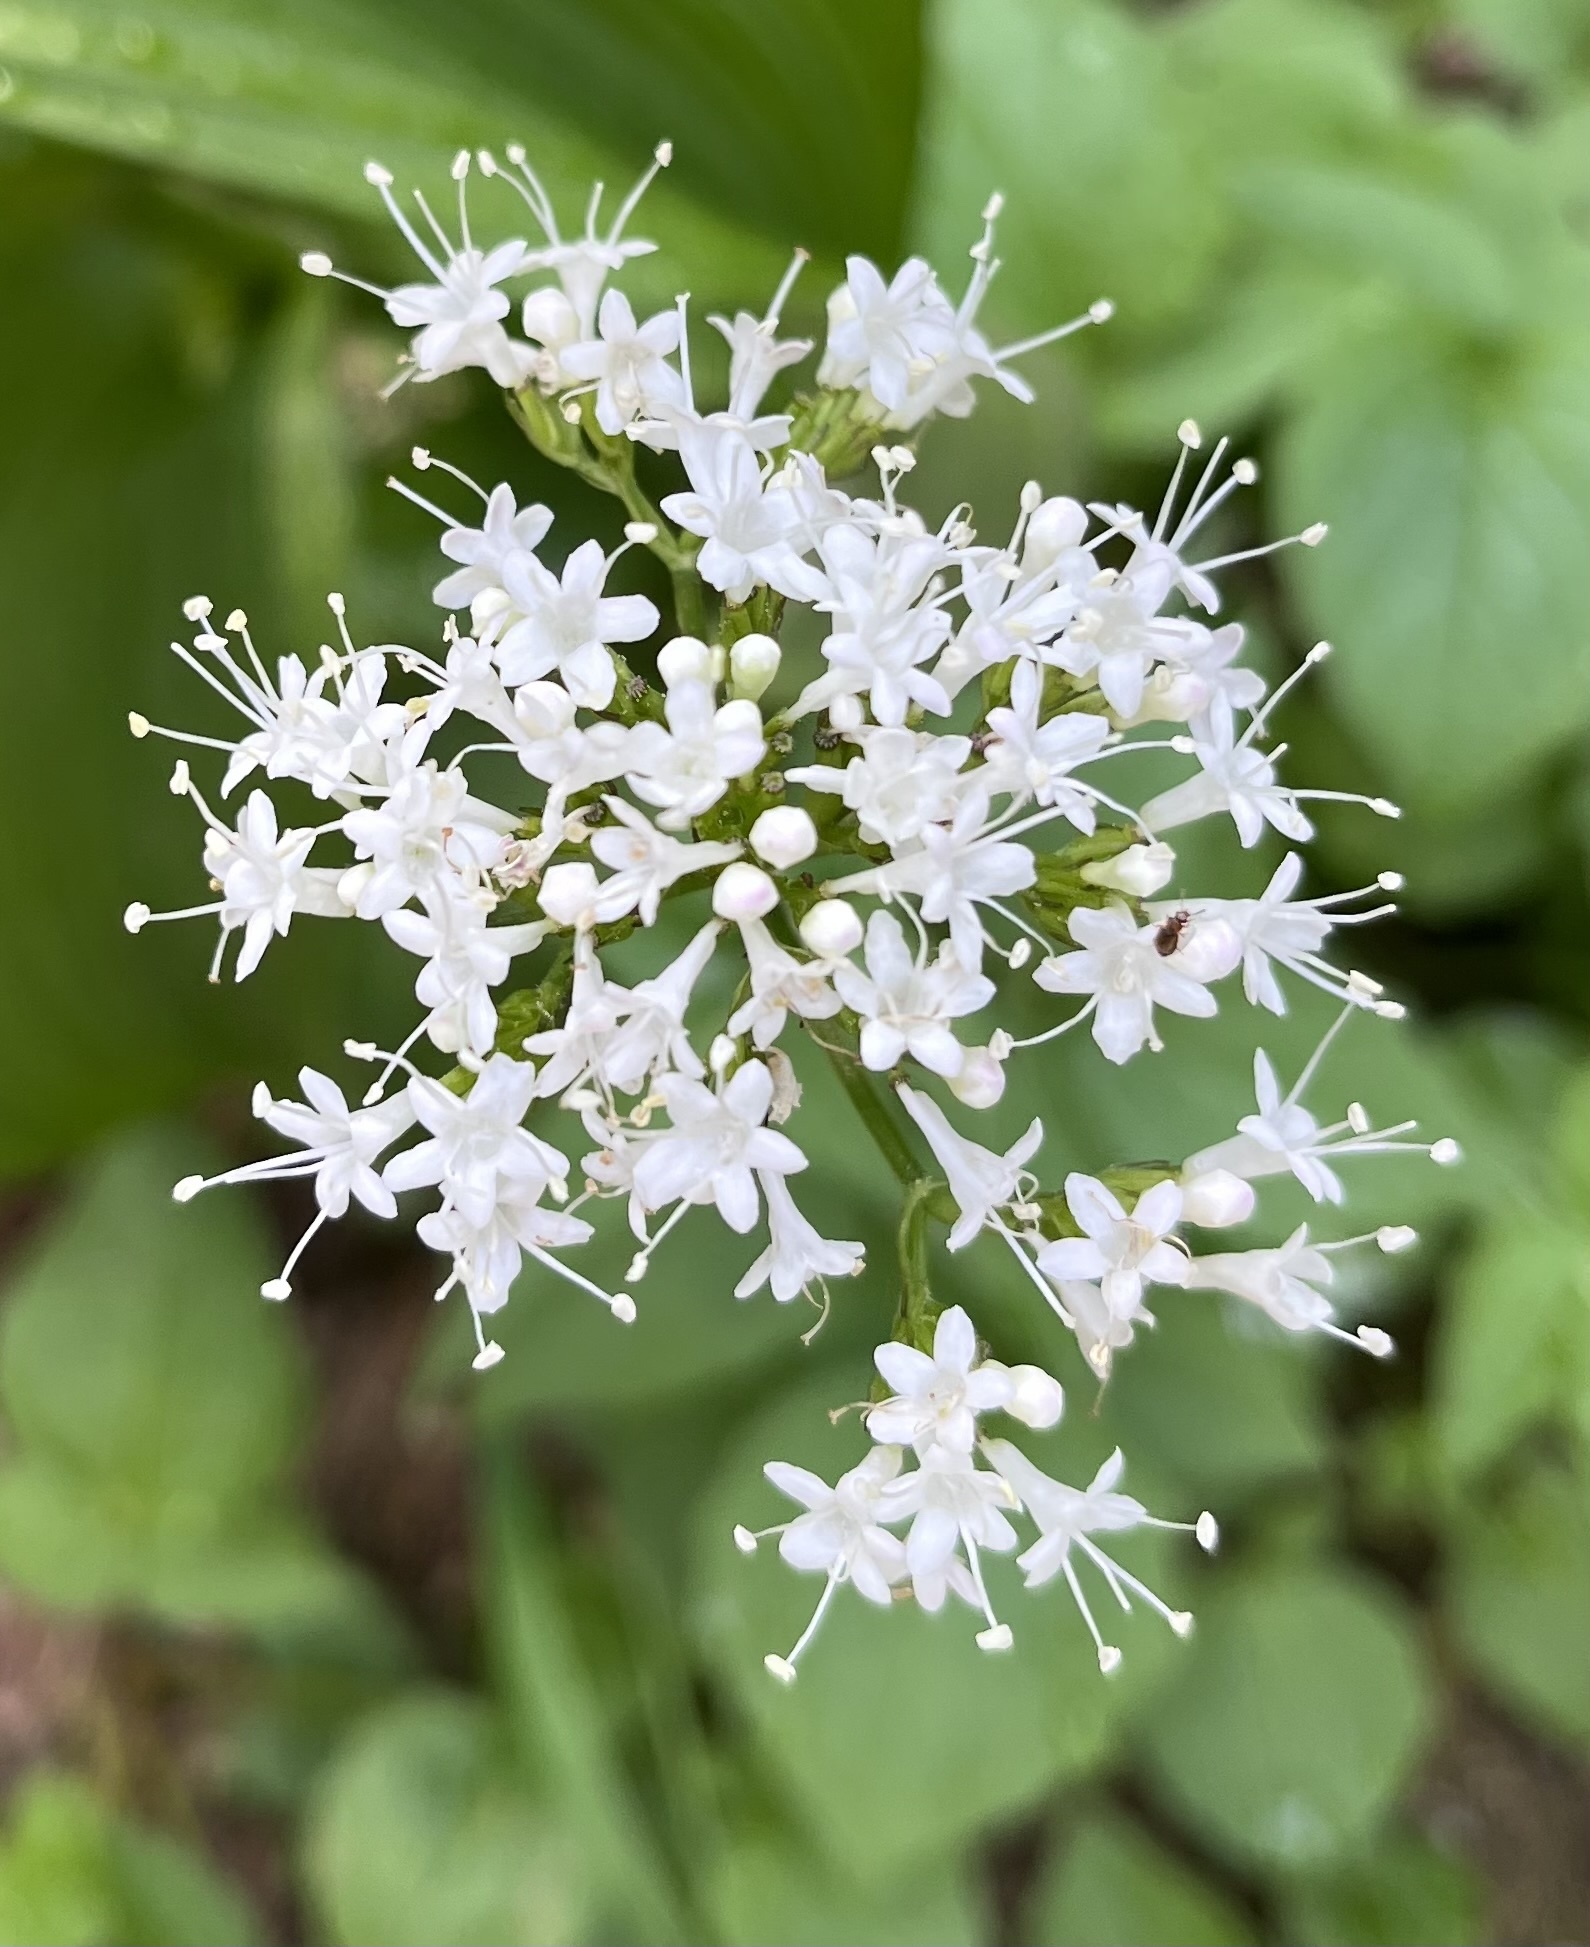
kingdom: Plantae
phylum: Tracheophyta
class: Magnoliopsida
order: Dipsacales
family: Caprifoliaceae
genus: Valeriana
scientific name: Valeriana sitchensis
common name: Pacific valerian
